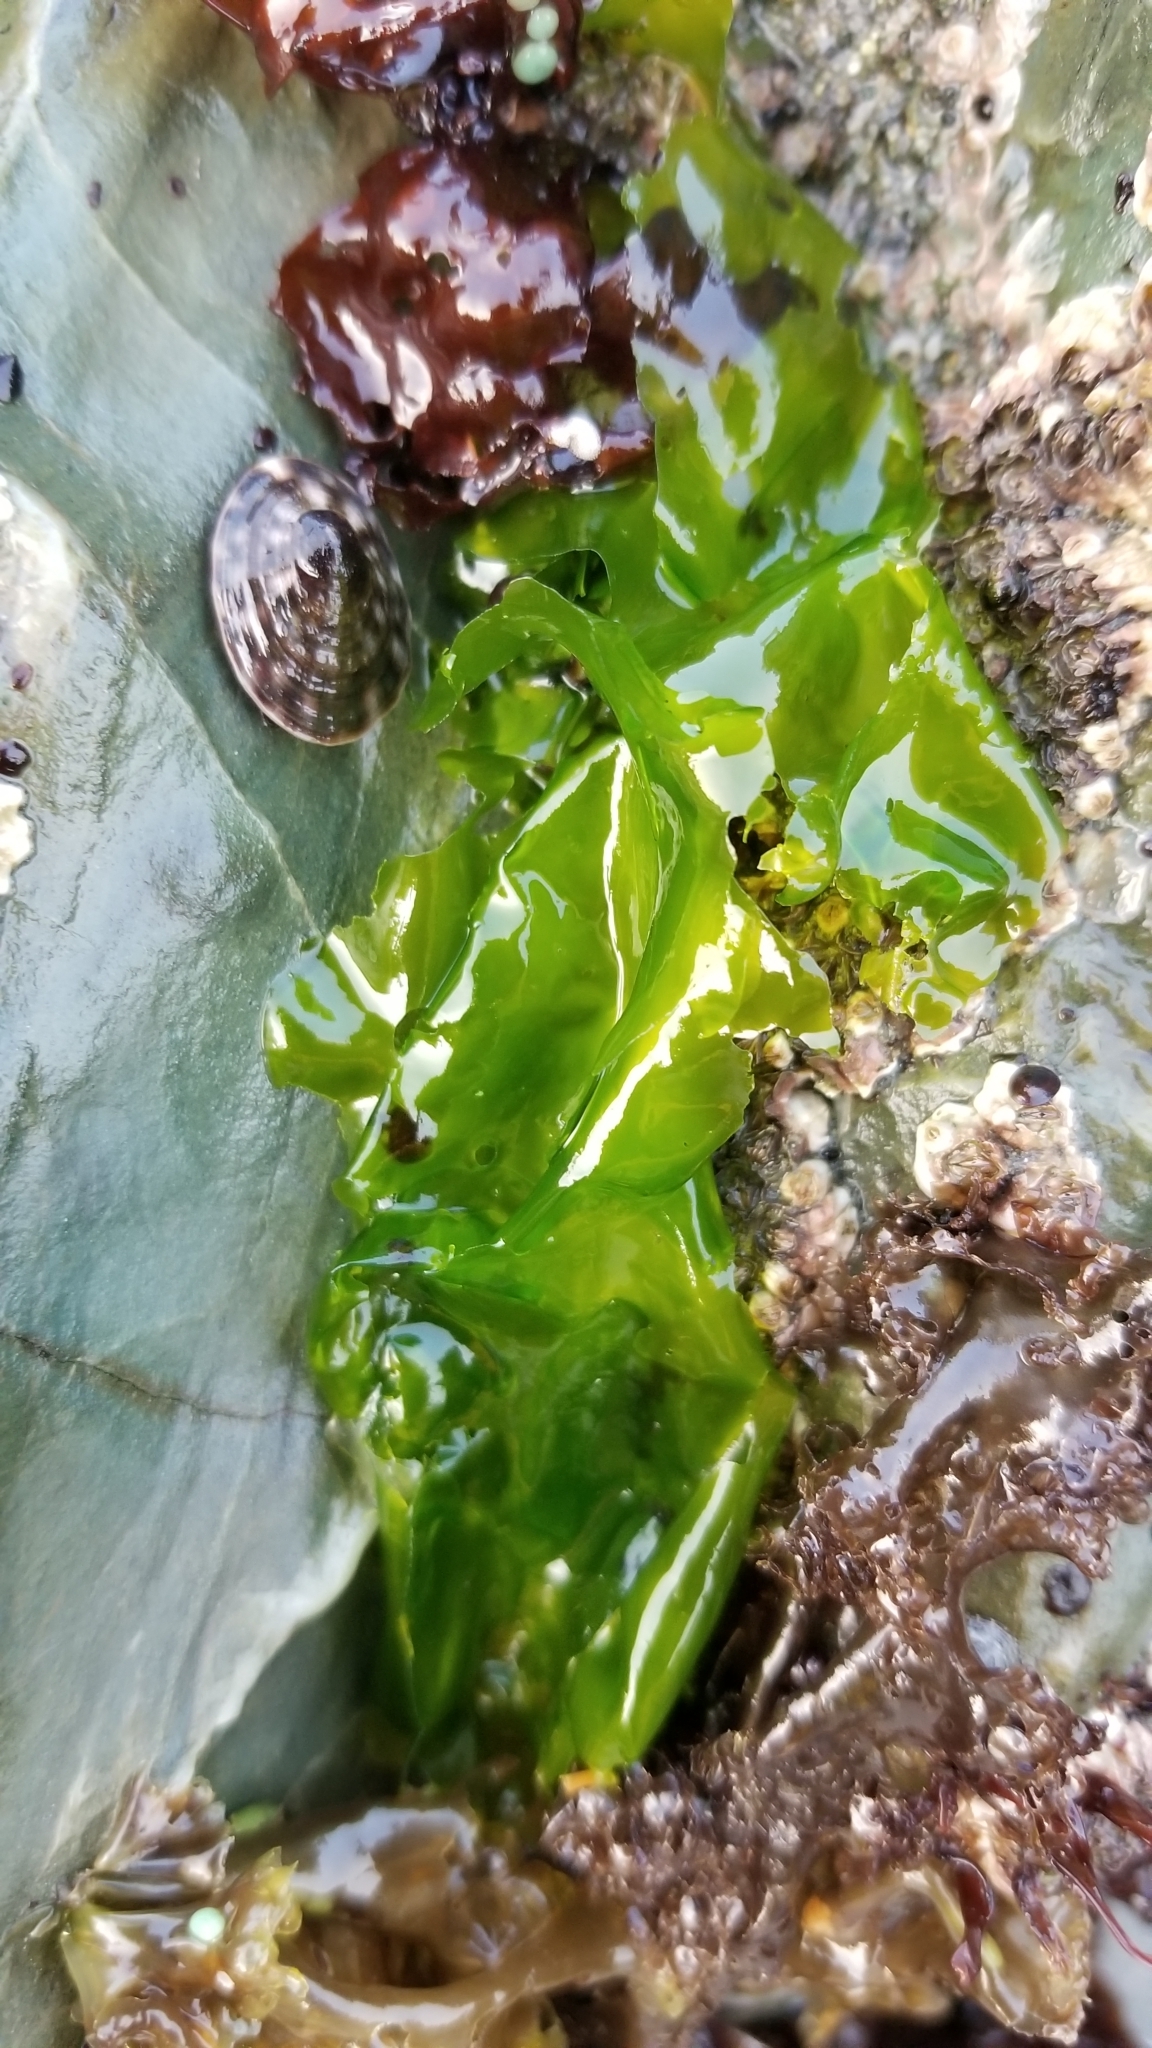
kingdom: Plantae
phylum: Chlorophyta
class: Ulvophyceae
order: Ulvales
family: Ulvaceae
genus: Ulva
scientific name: Ulva lactuca
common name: Sea lettuce
